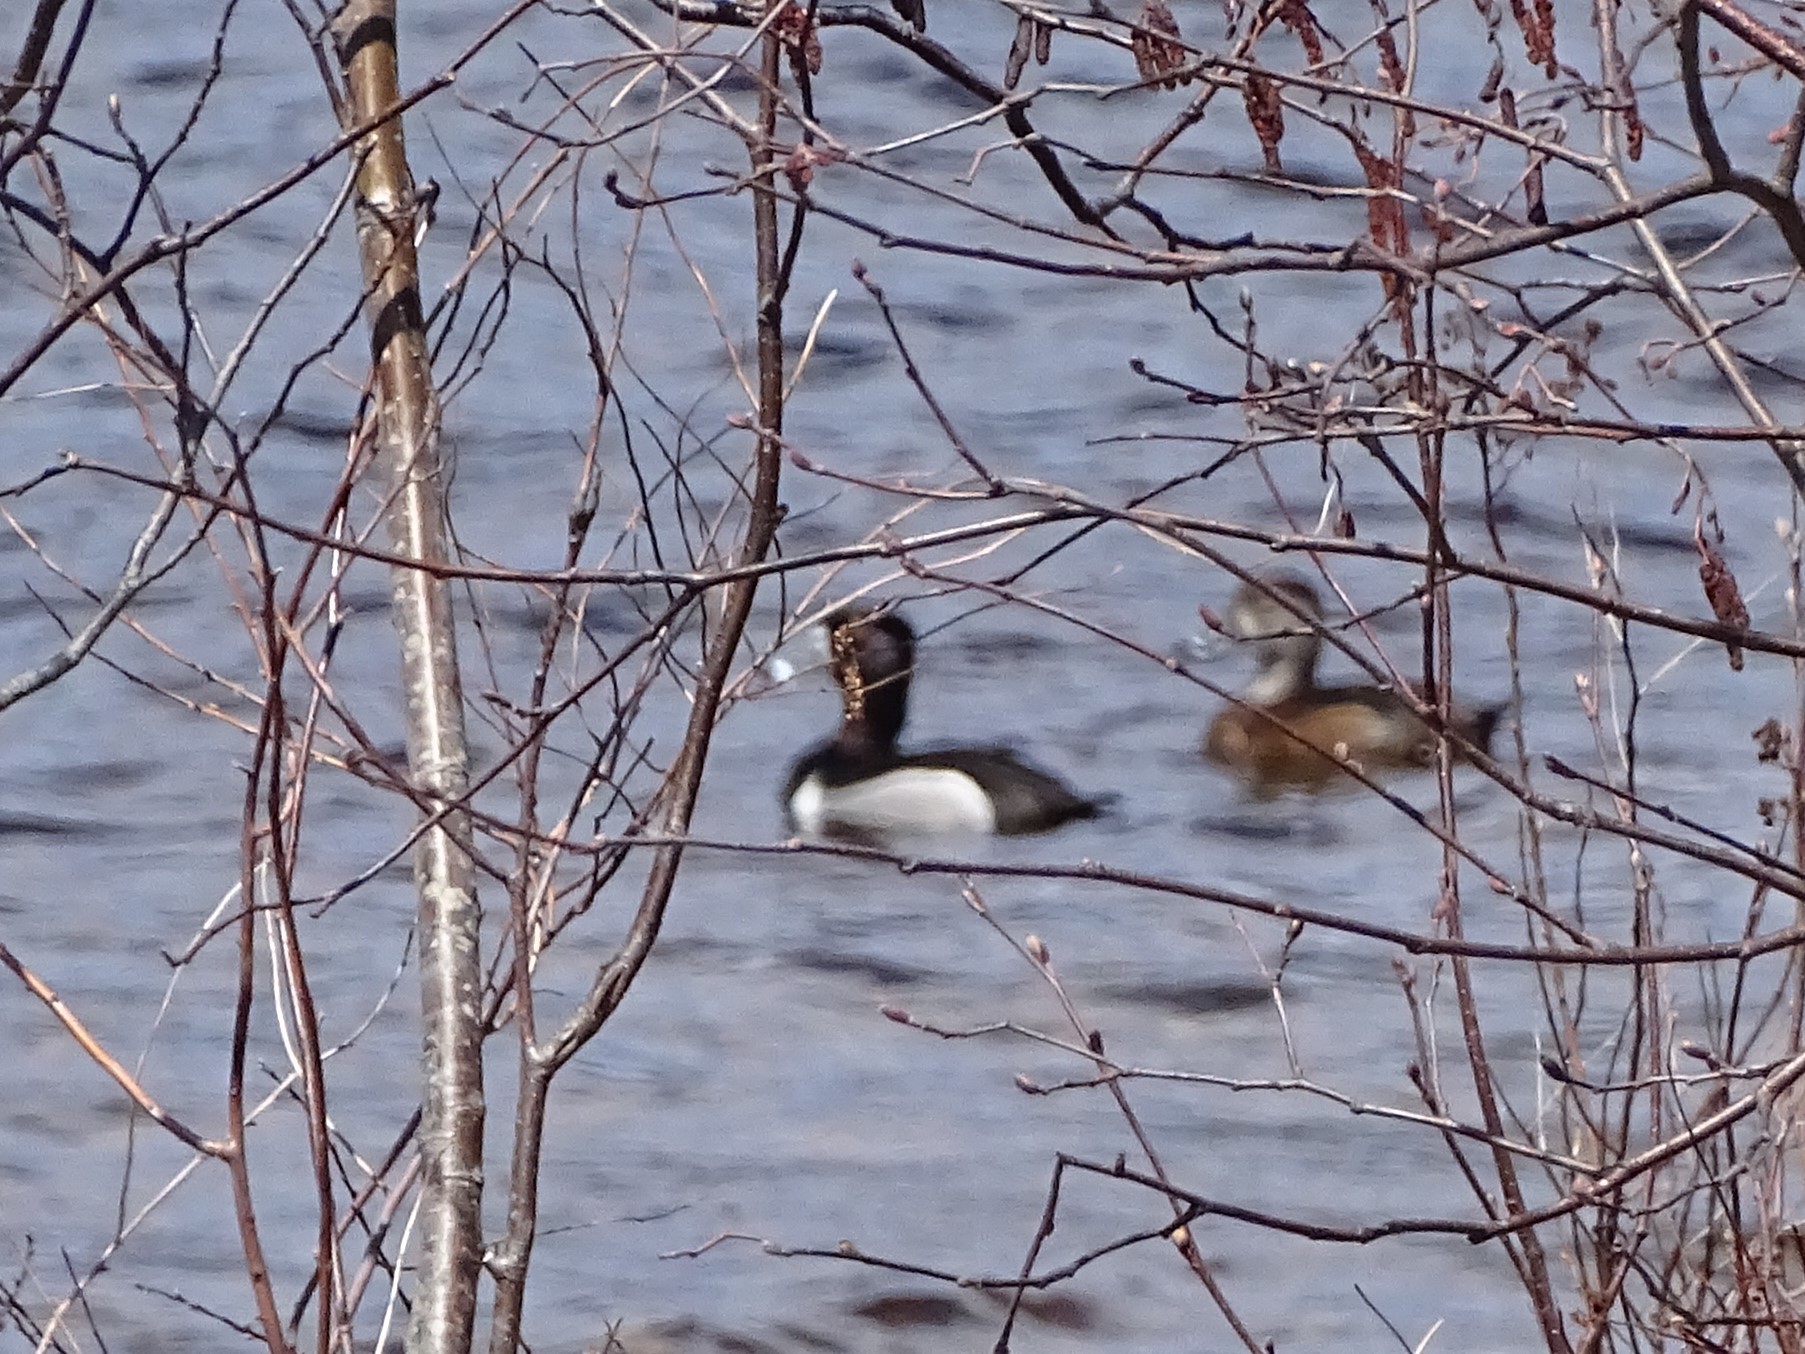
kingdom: Animalia
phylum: Chordata
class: Aves
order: Anseriformes
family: Anatidae
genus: Aythya
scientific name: Aythya collaris
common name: Ring-necked duck
